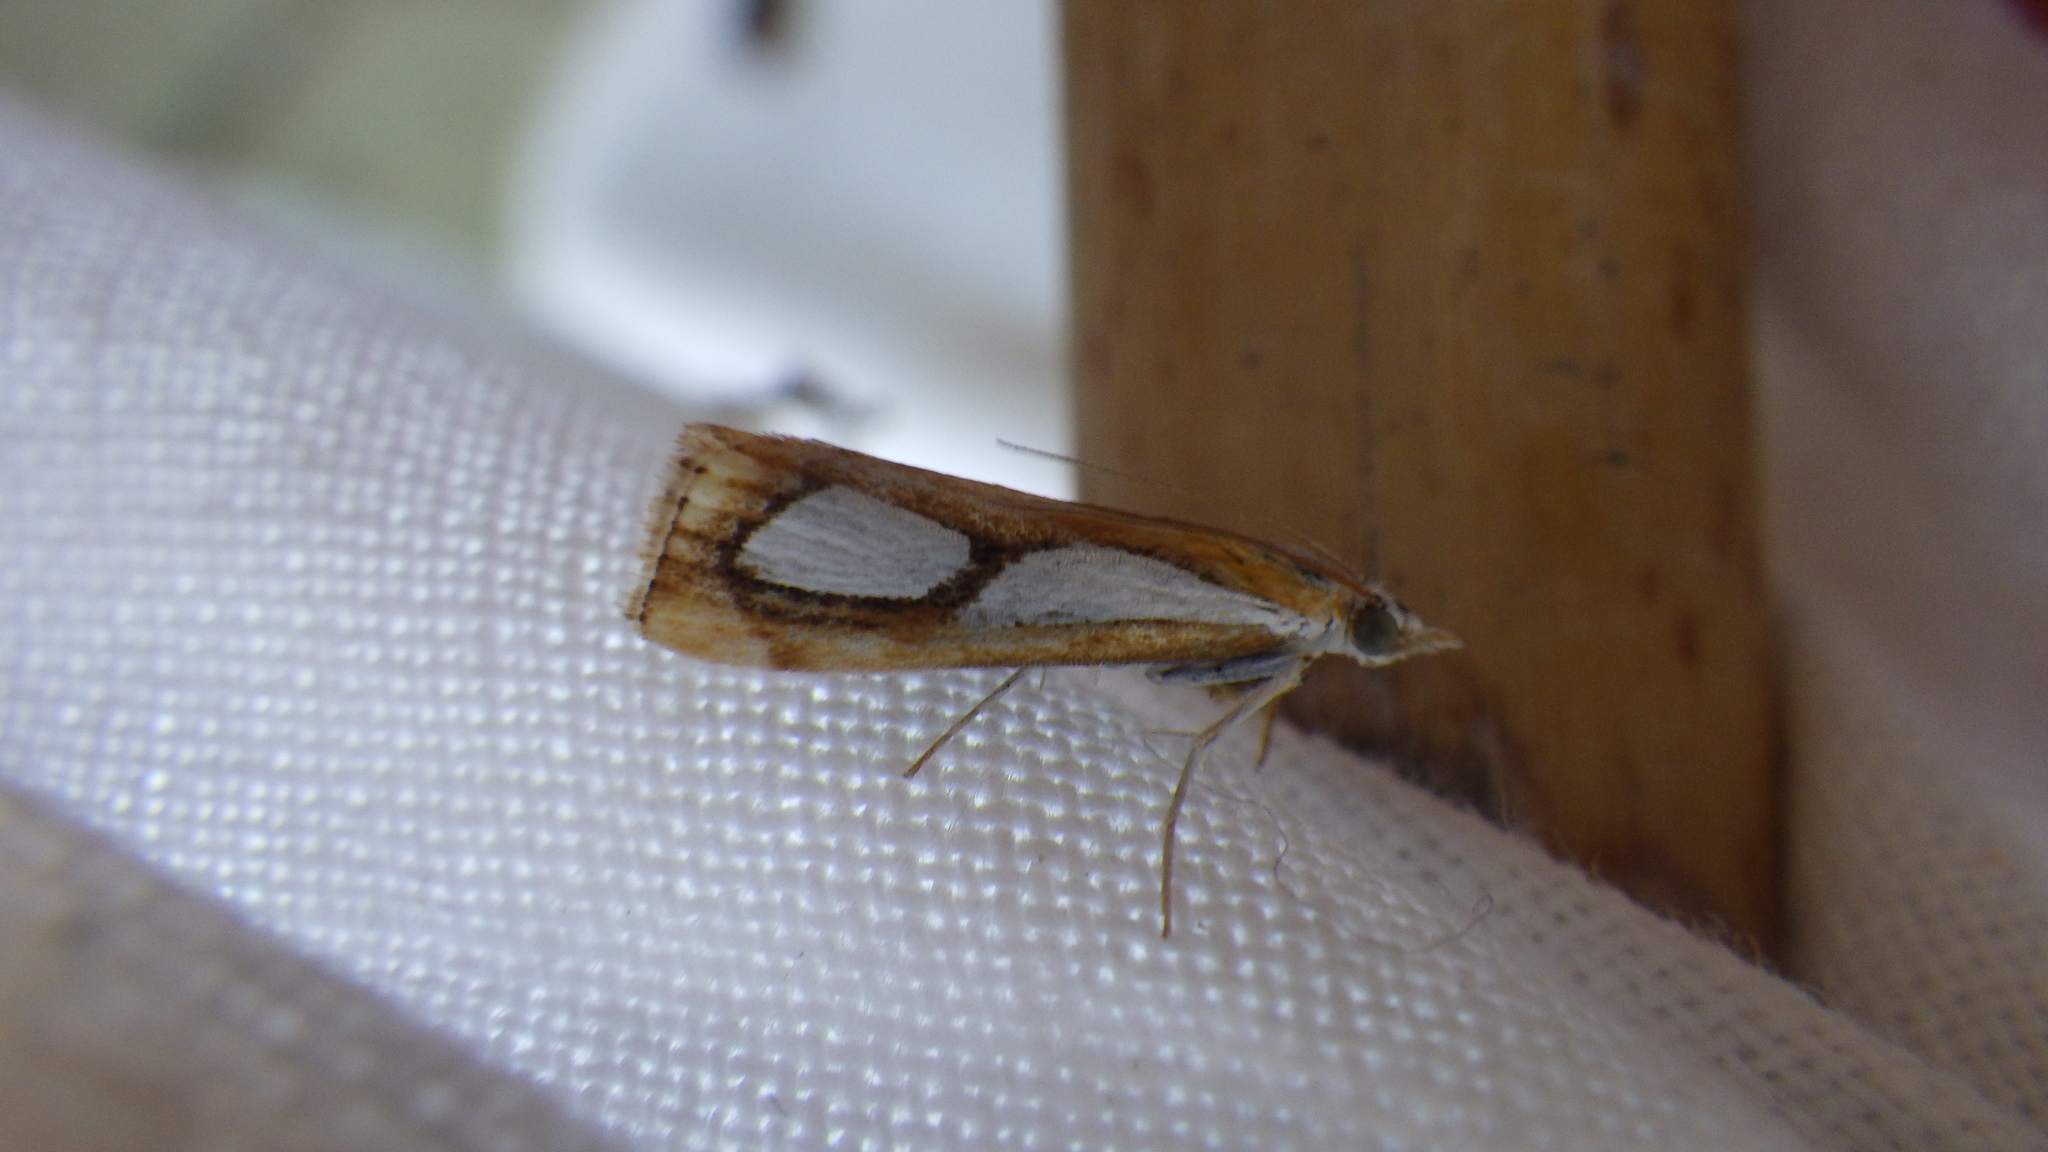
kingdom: Animalia
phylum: Arthropoda
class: Insecta
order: Lepidoptera
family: Crambidae
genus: Catoptria
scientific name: Catoptria pinella
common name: Pearl grass-veneer
